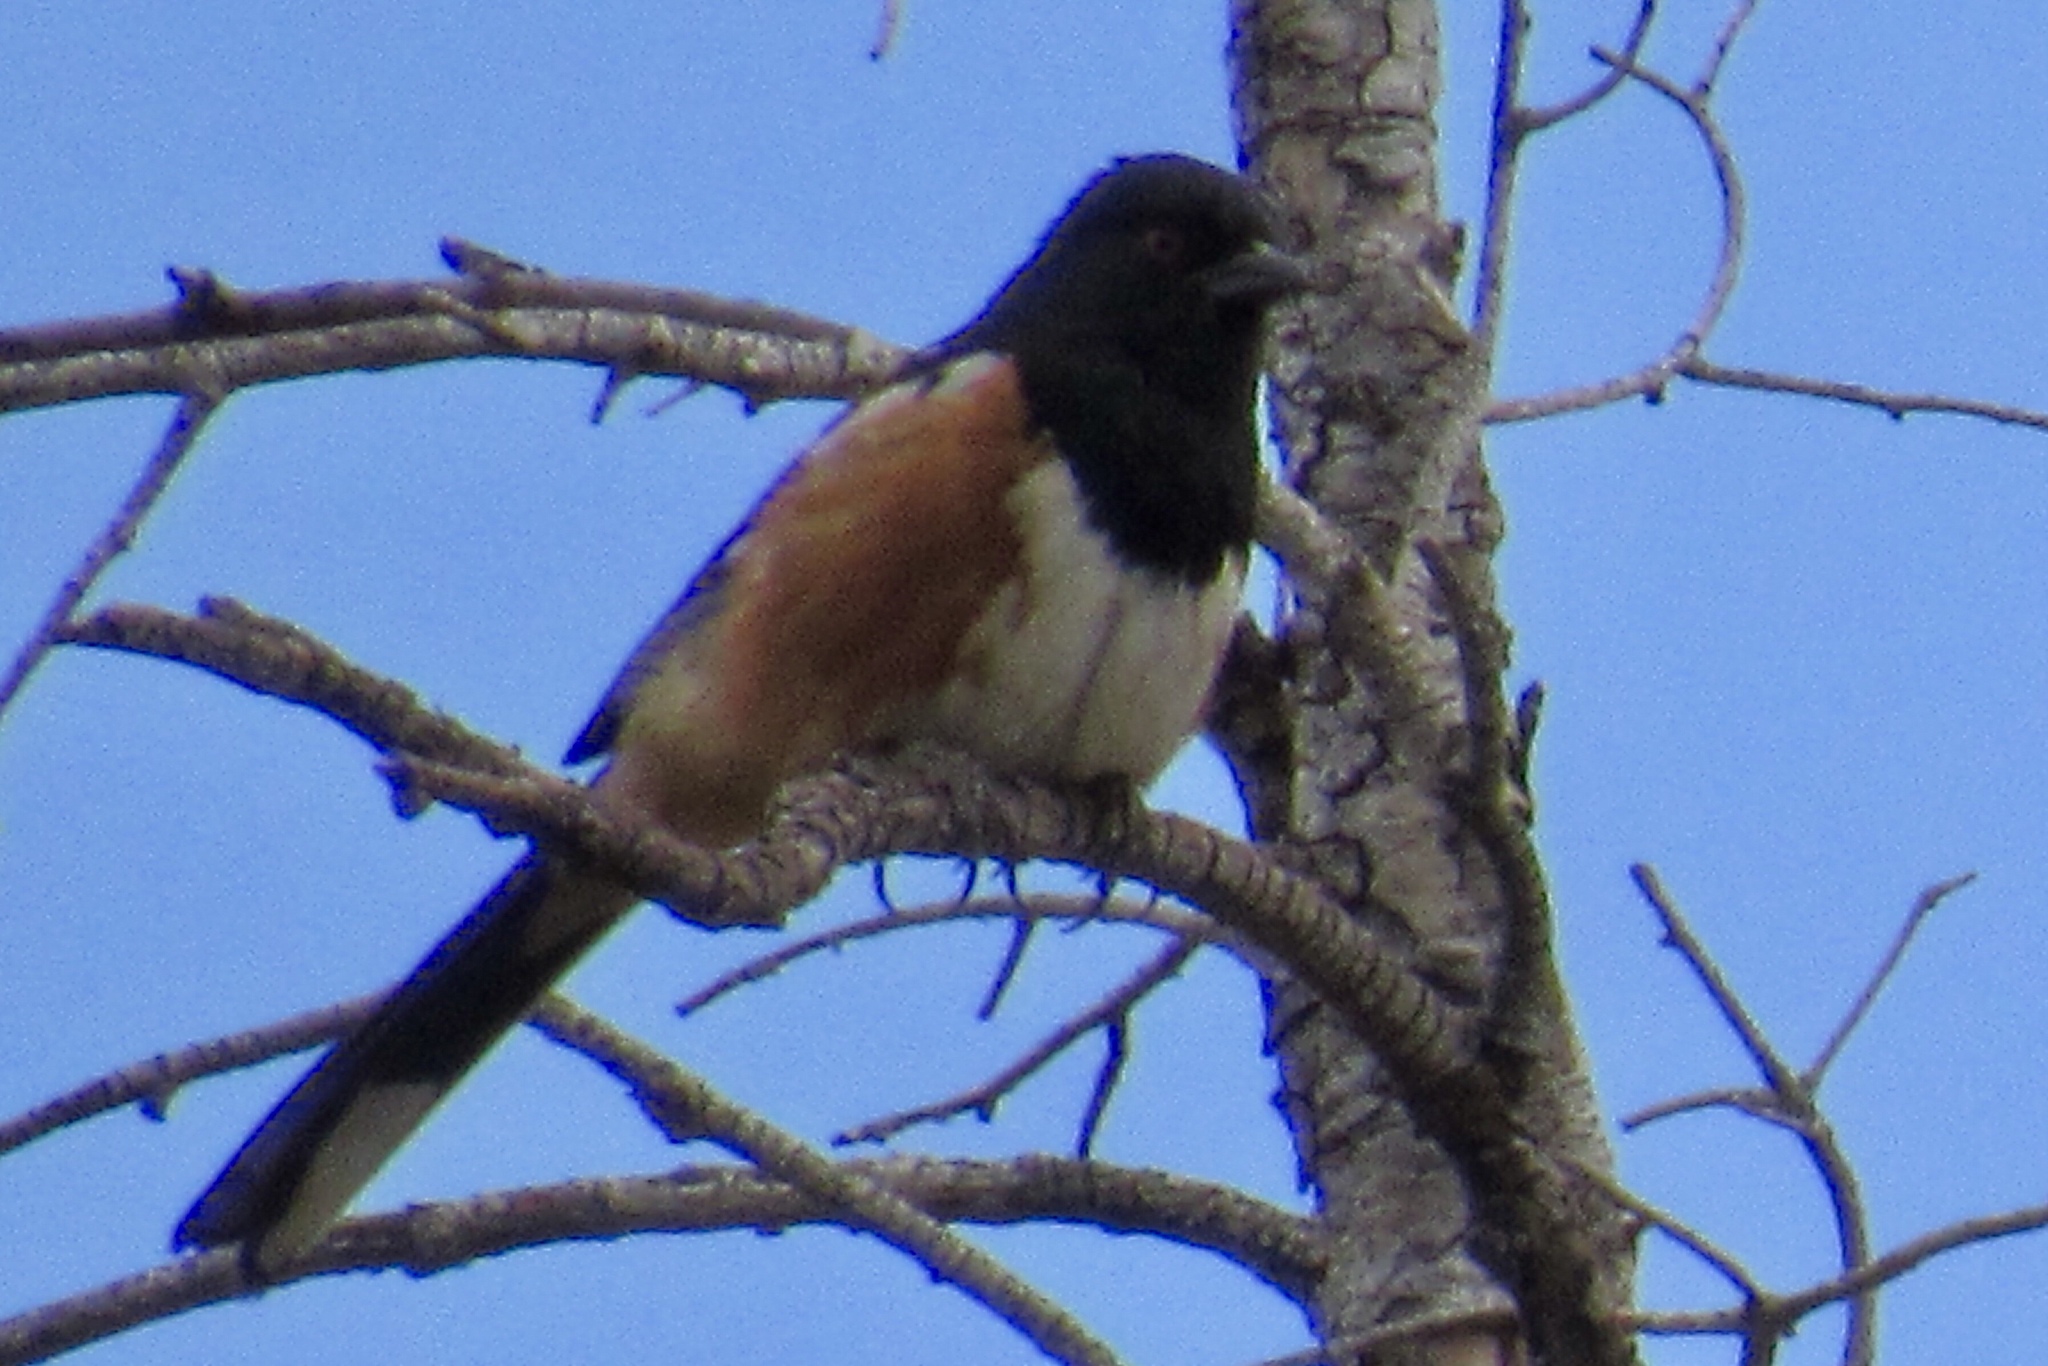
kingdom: Animalia
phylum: Chordata
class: Aves
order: Passeriformes
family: Passerellidae
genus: Pipilo
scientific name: Pipilo maculatus
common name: Spotted towhee
